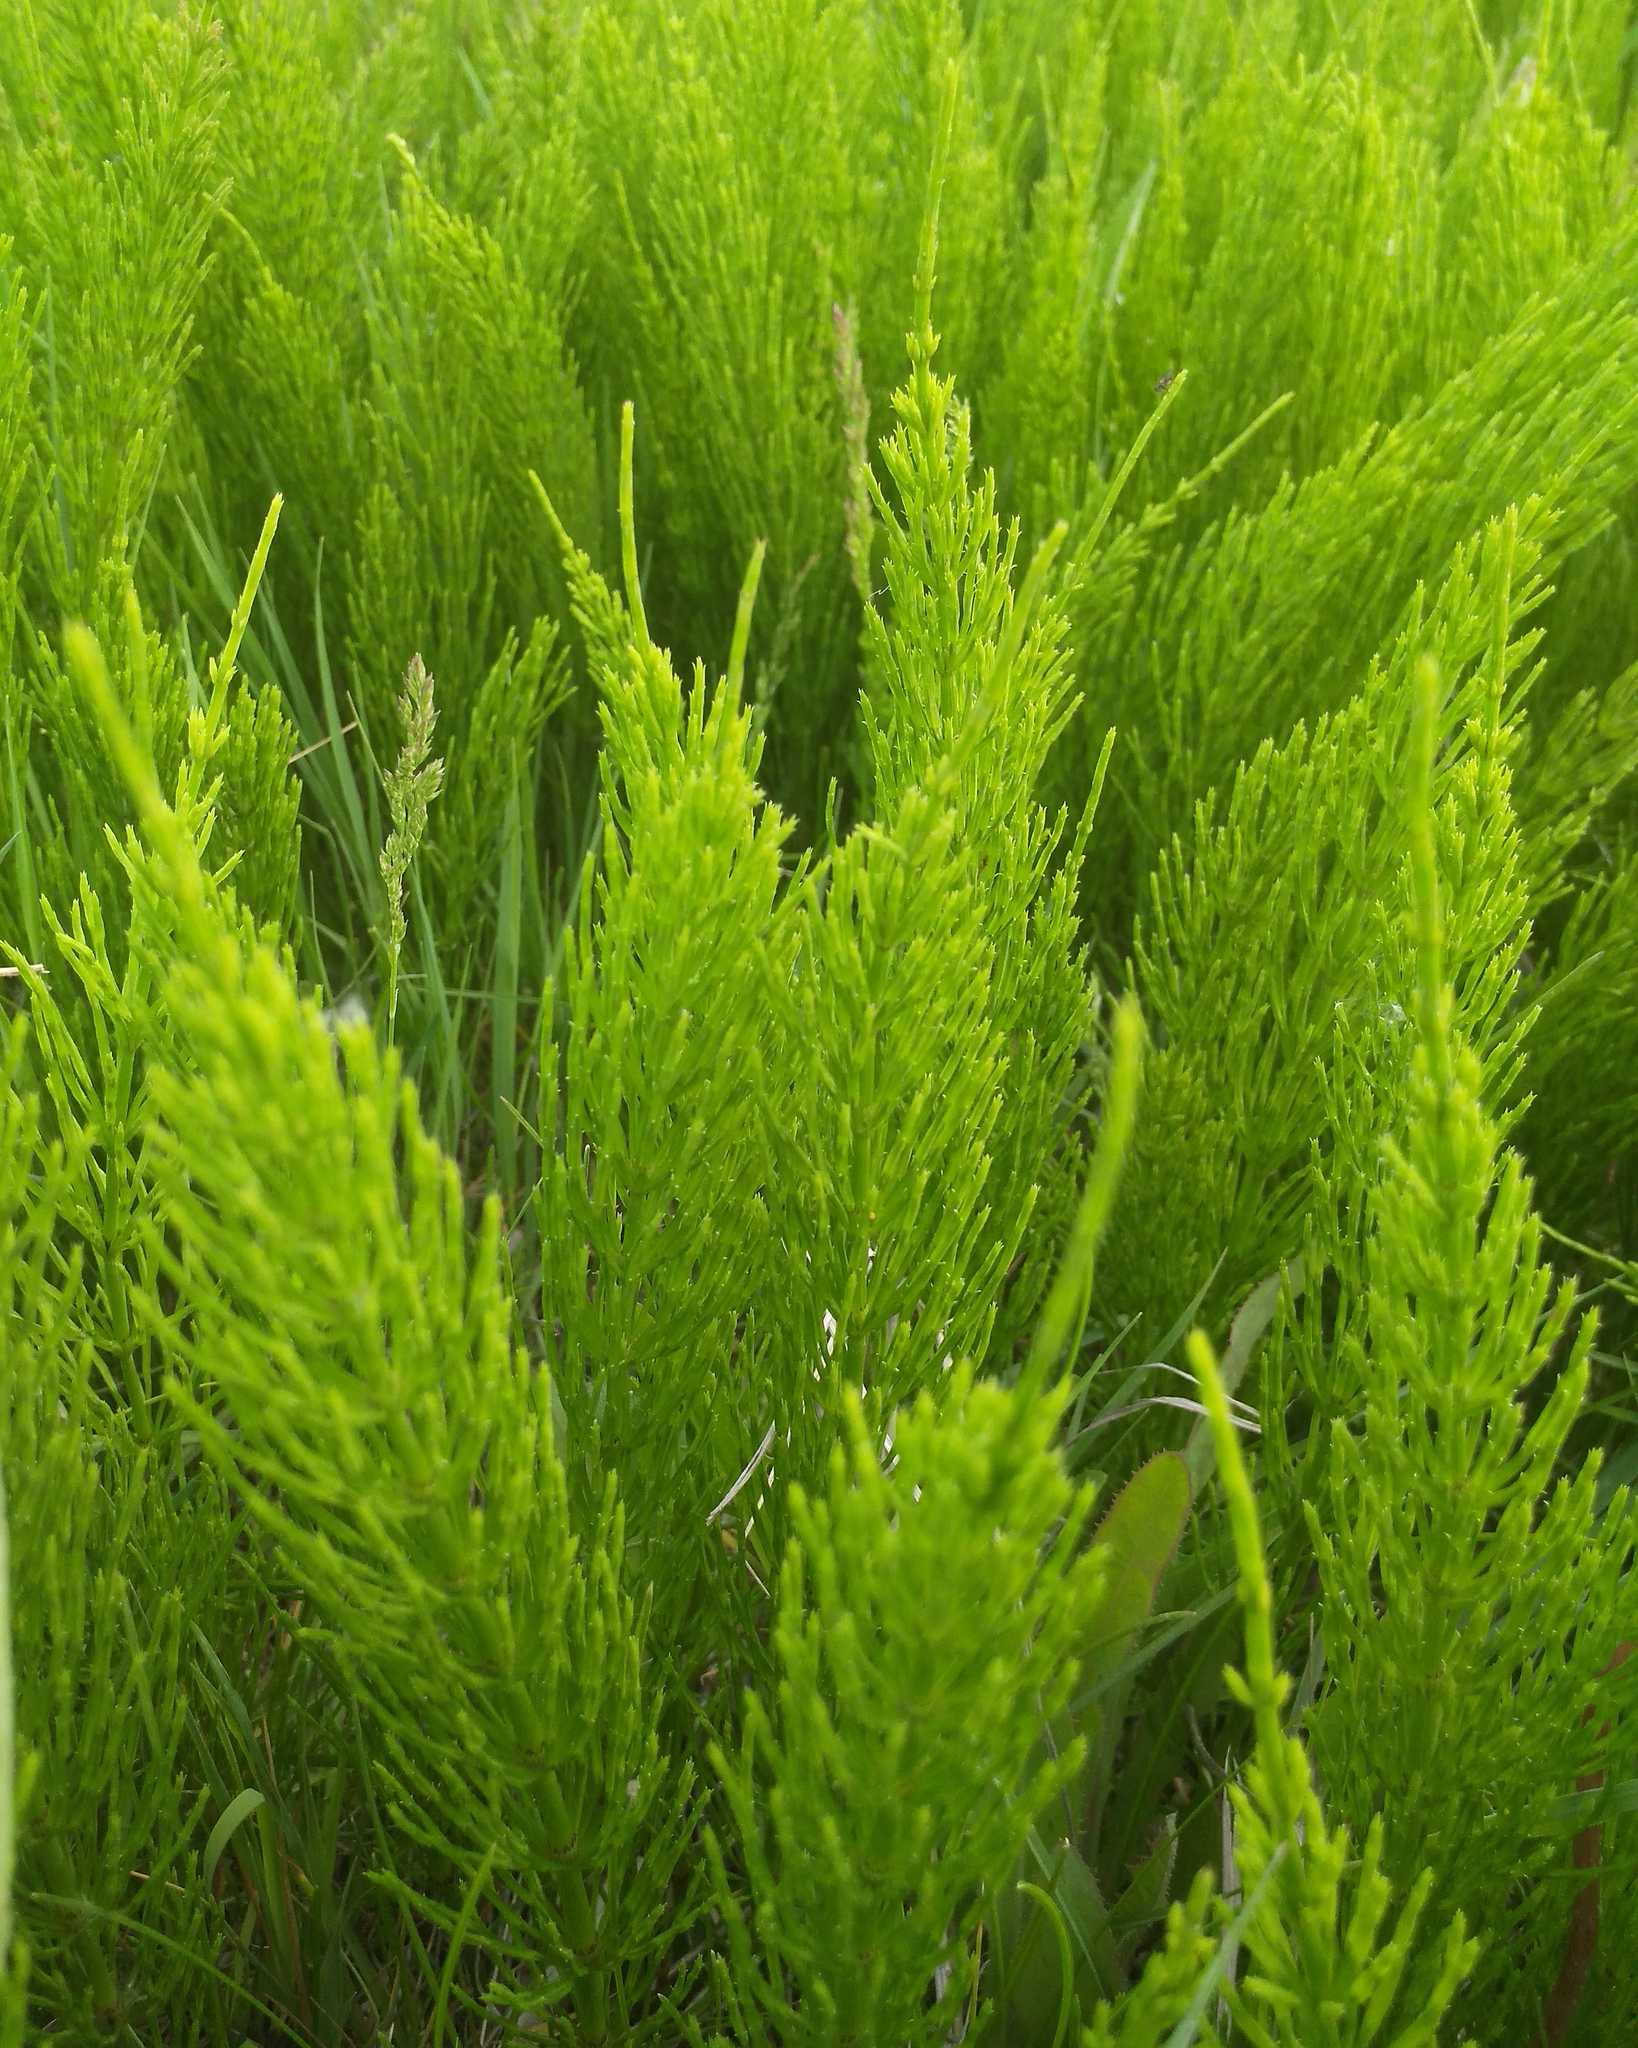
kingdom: Plantae
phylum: Tracheophyta
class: Polypodiopsida
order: Equisetales
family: Equisetaceae
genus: Equisetum
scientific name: Equisetum arvense
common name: Field horsetail
